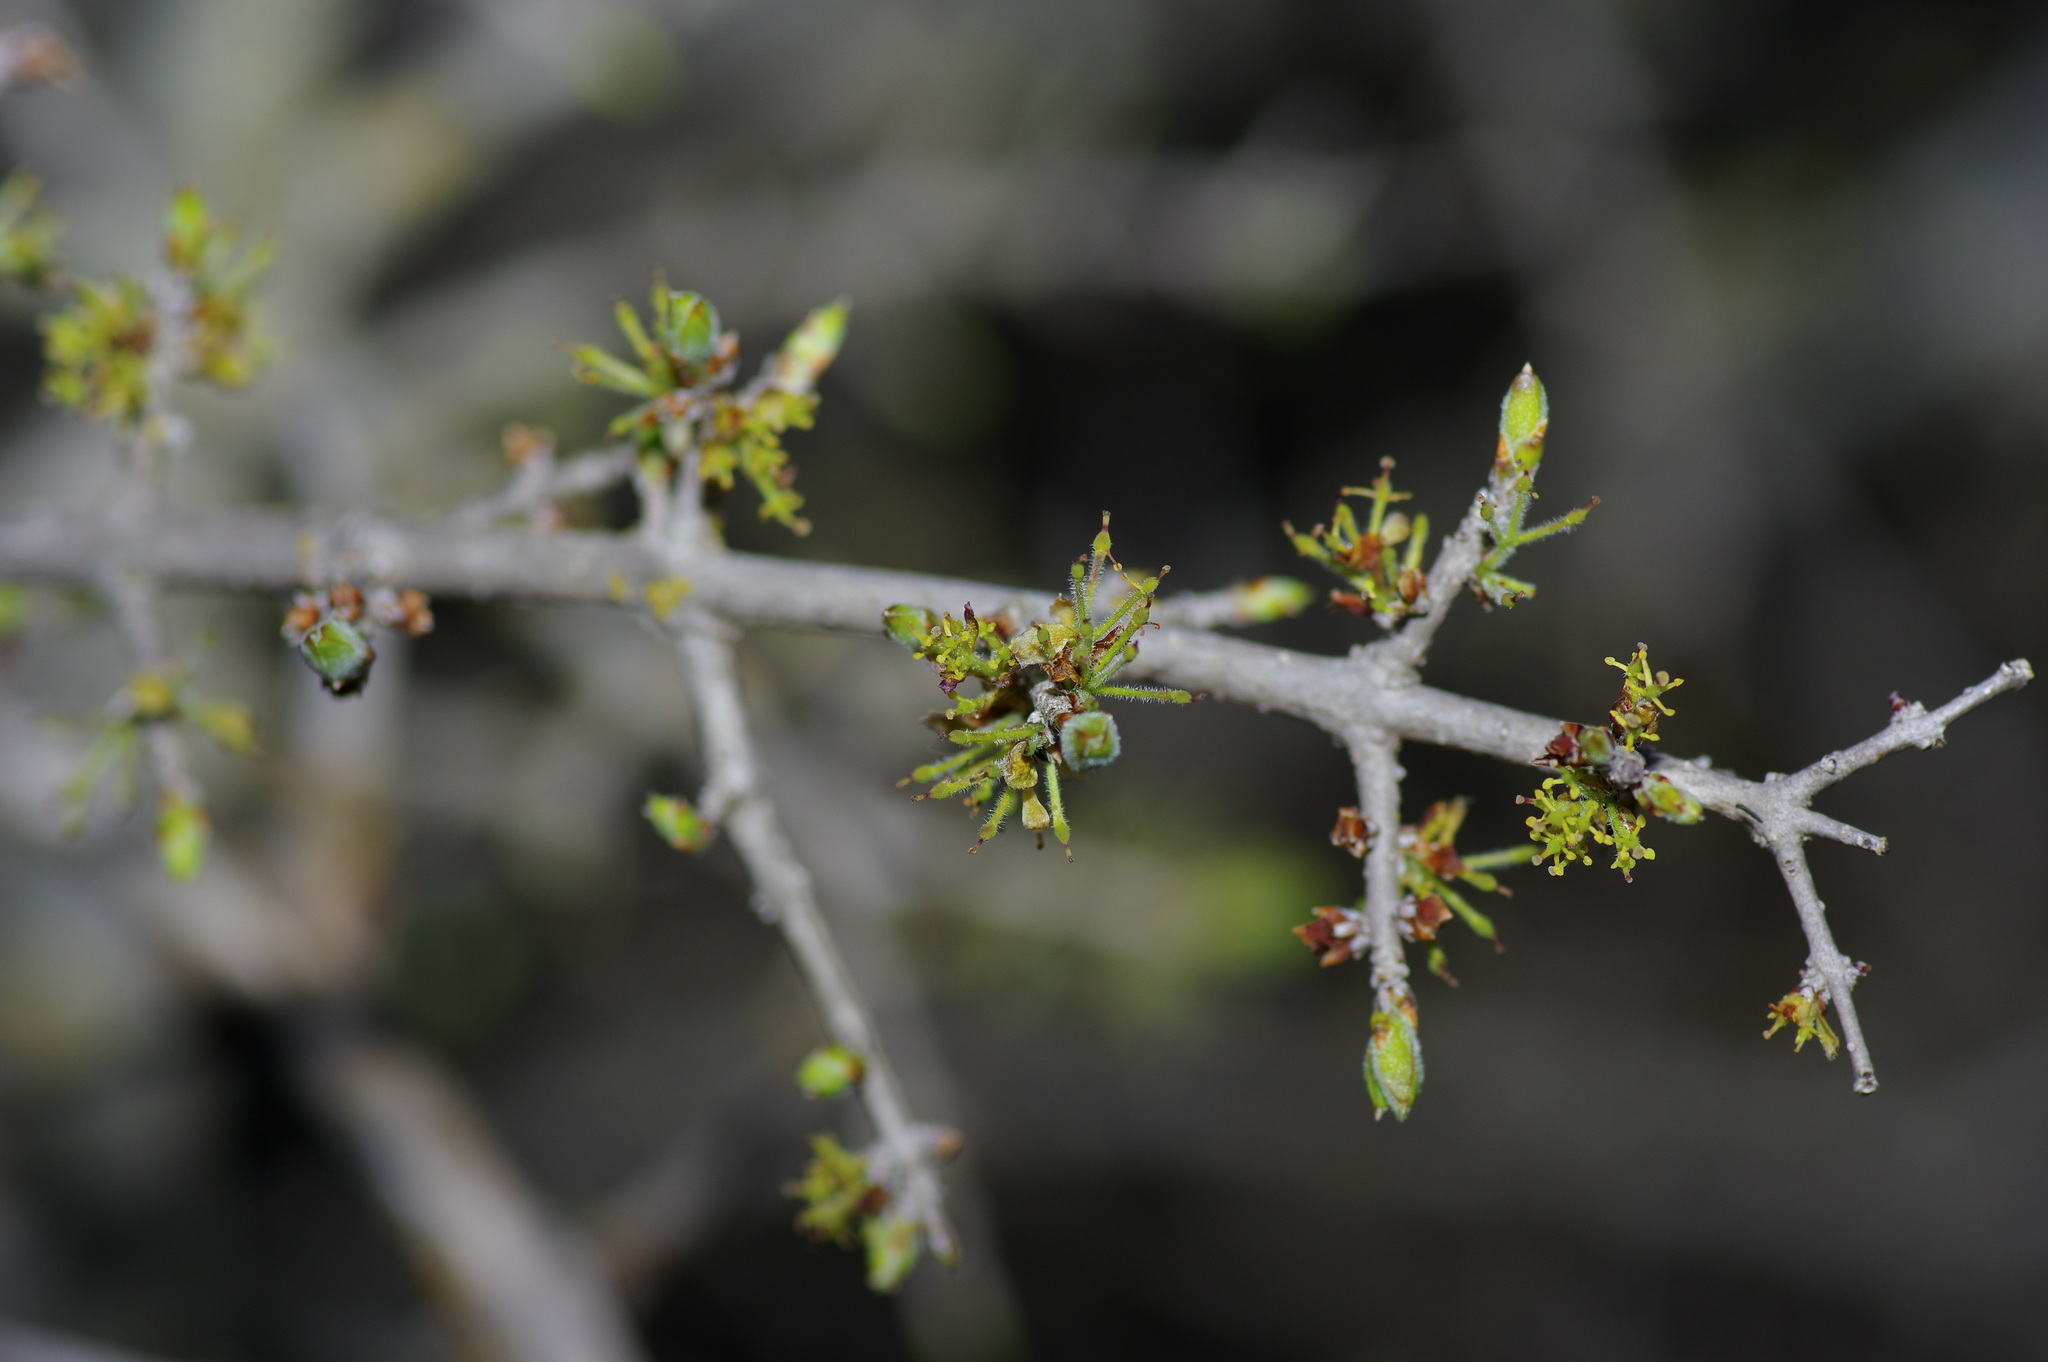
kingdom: Plantae
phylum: Tracheophyta
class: Magnoliopsida
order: Lamiales
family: Oleaceae
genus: Forestiera
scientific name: Forestiera pubescens
